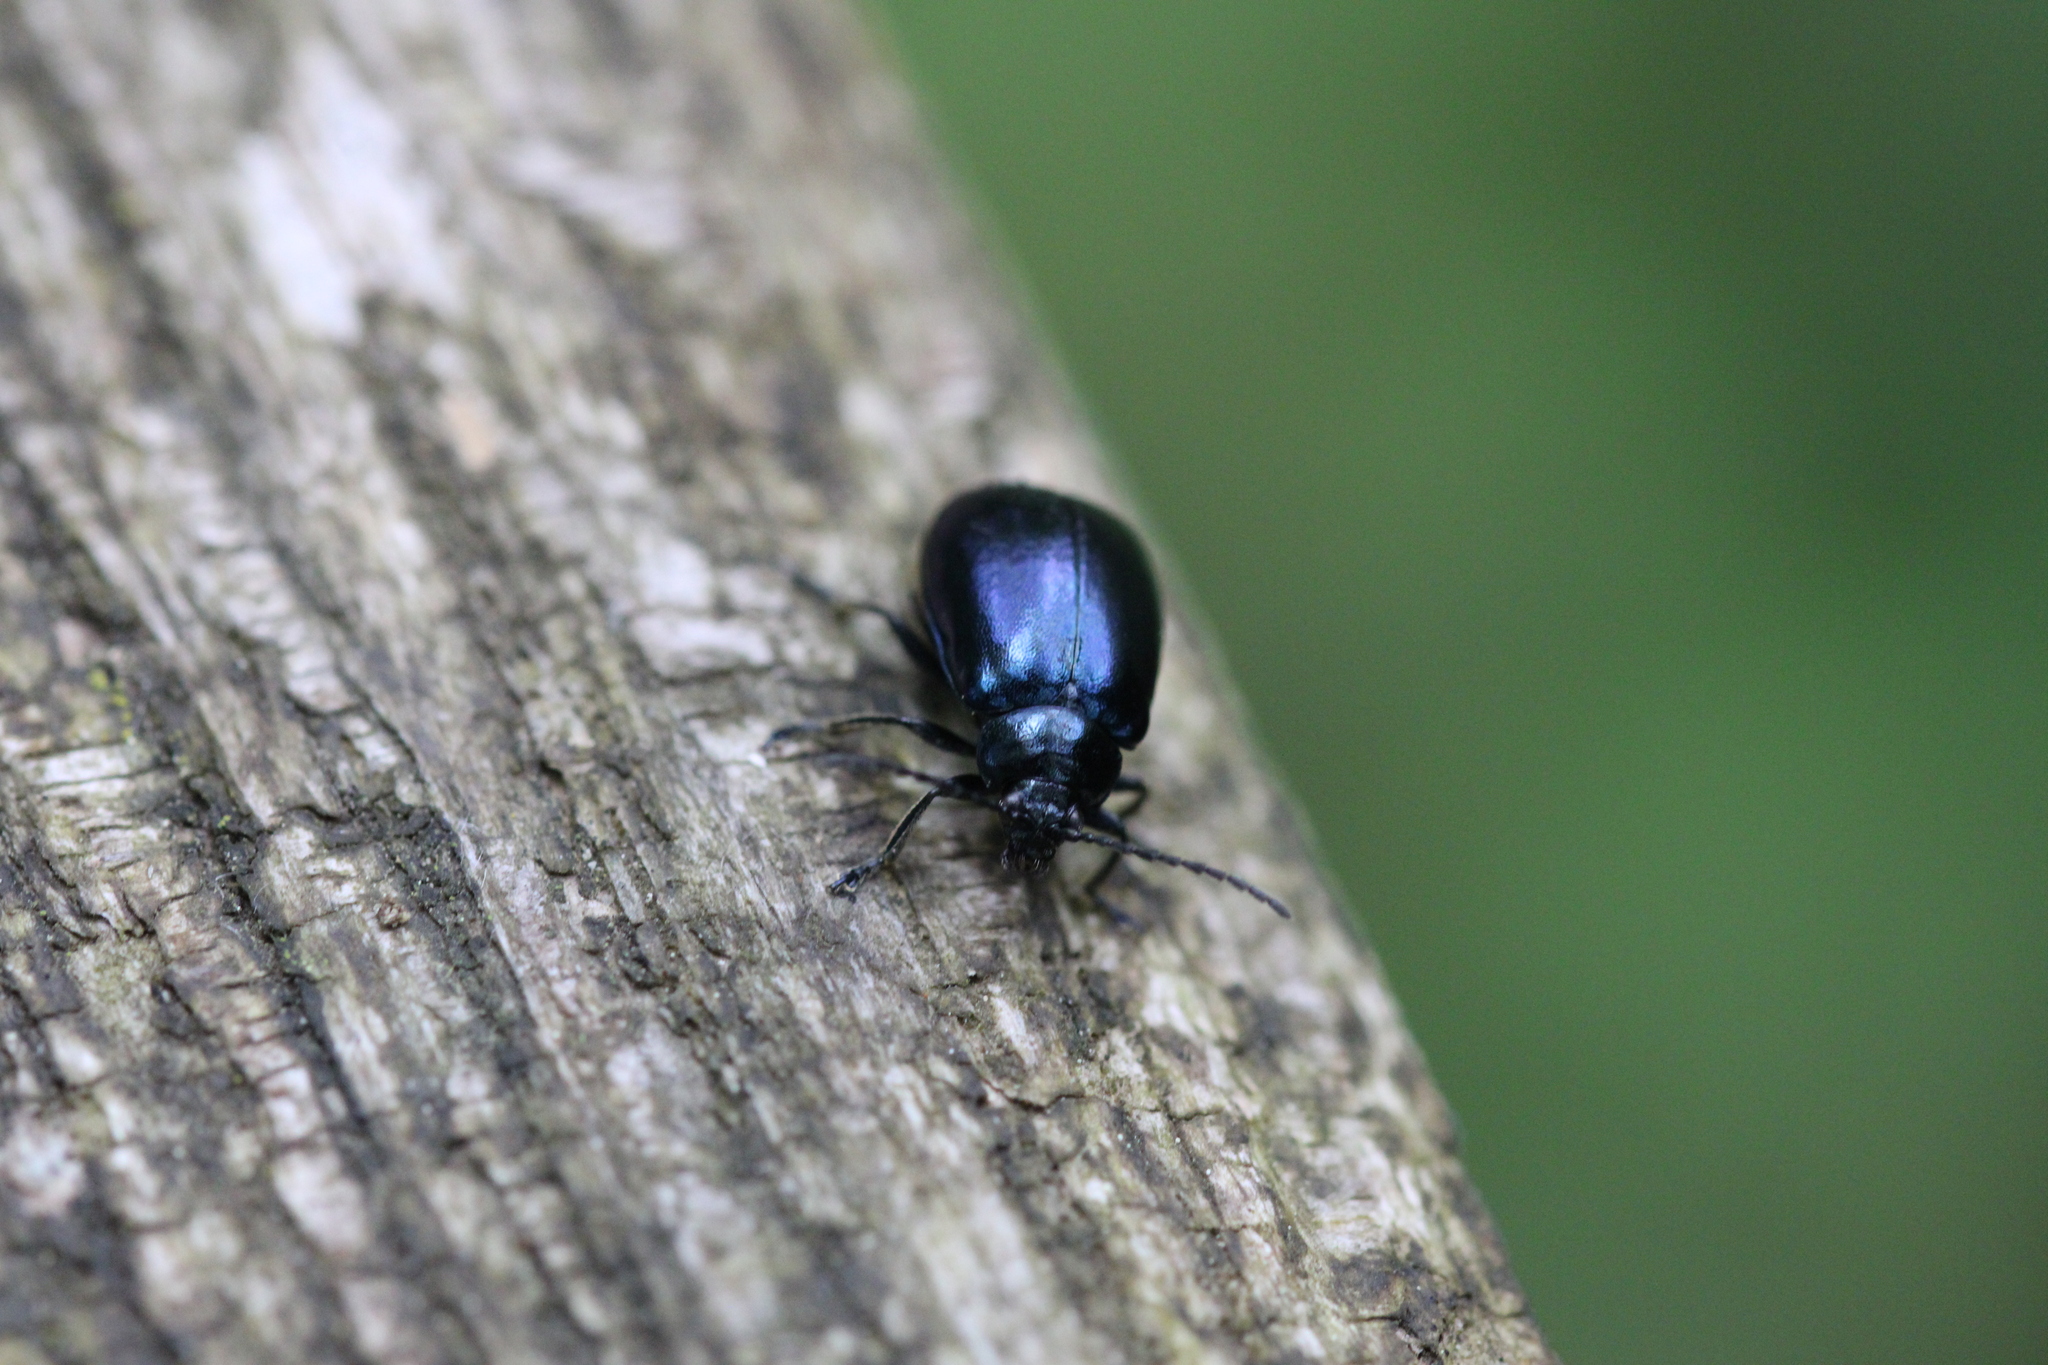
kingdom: Animalia
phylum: Arthropoda
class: Insecta
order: Coleoptera
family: Chrysomelidae
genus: Agelastica
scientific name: Agelastica alni
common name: Alder leaf beetle
